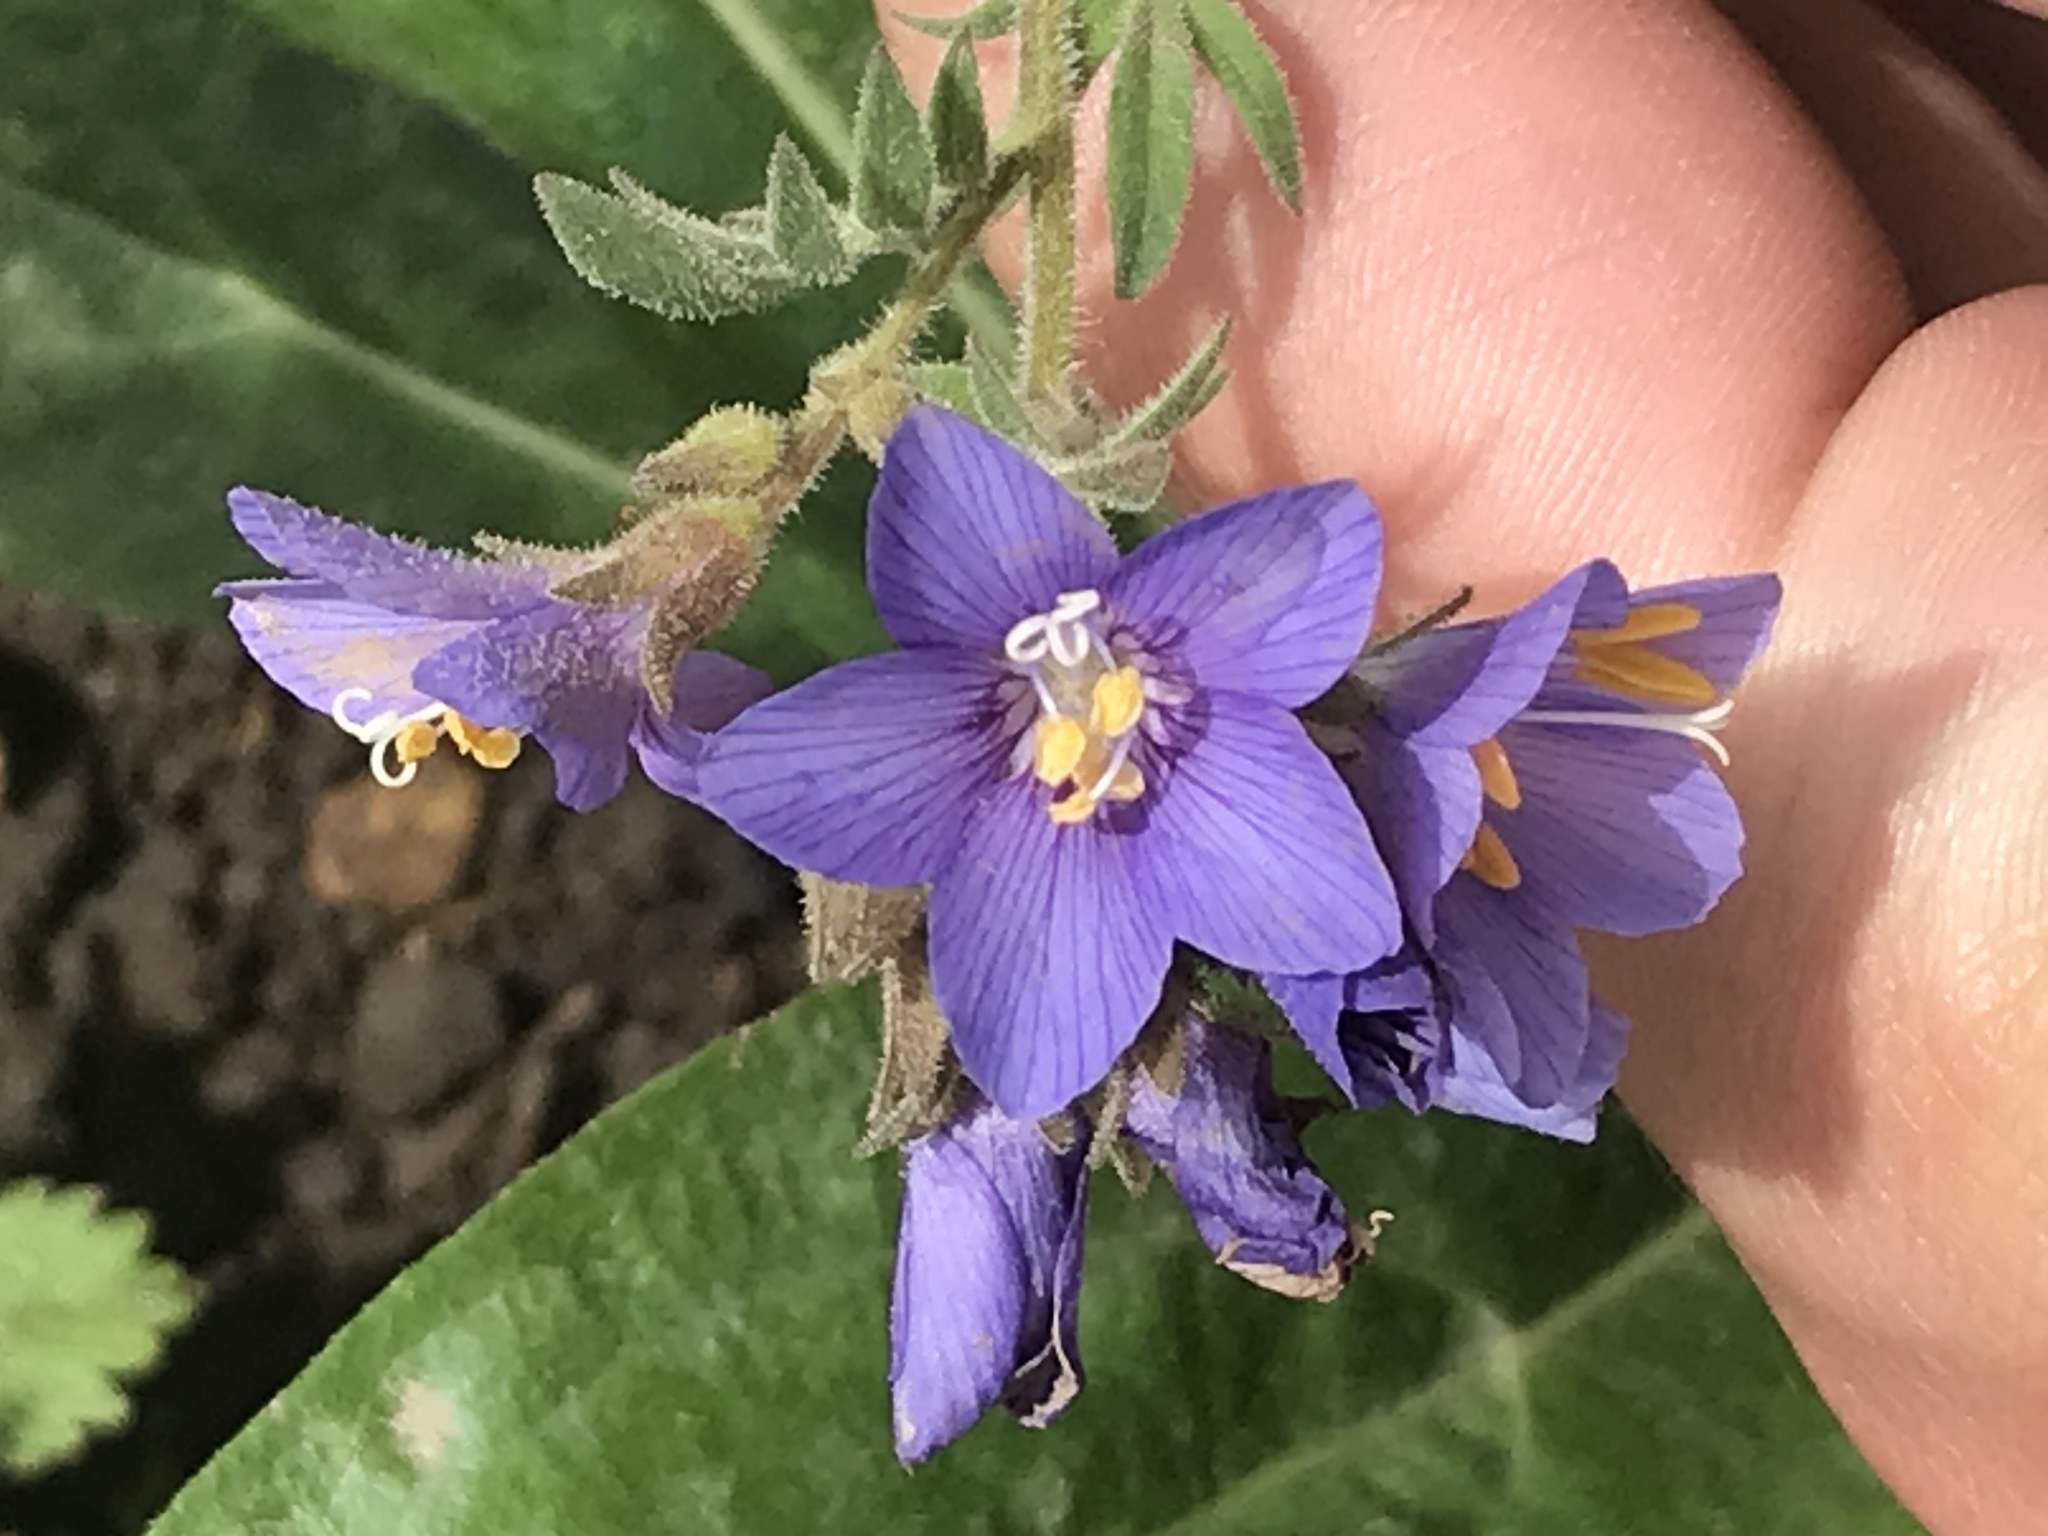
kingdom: Plantae
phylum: Tracheophyta
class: Magnoliopsida
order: Ericales
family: Polemoniaceae
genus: Polemonium
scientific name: Polemonium foliosissimum
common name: Leafy jacob's-ladder
